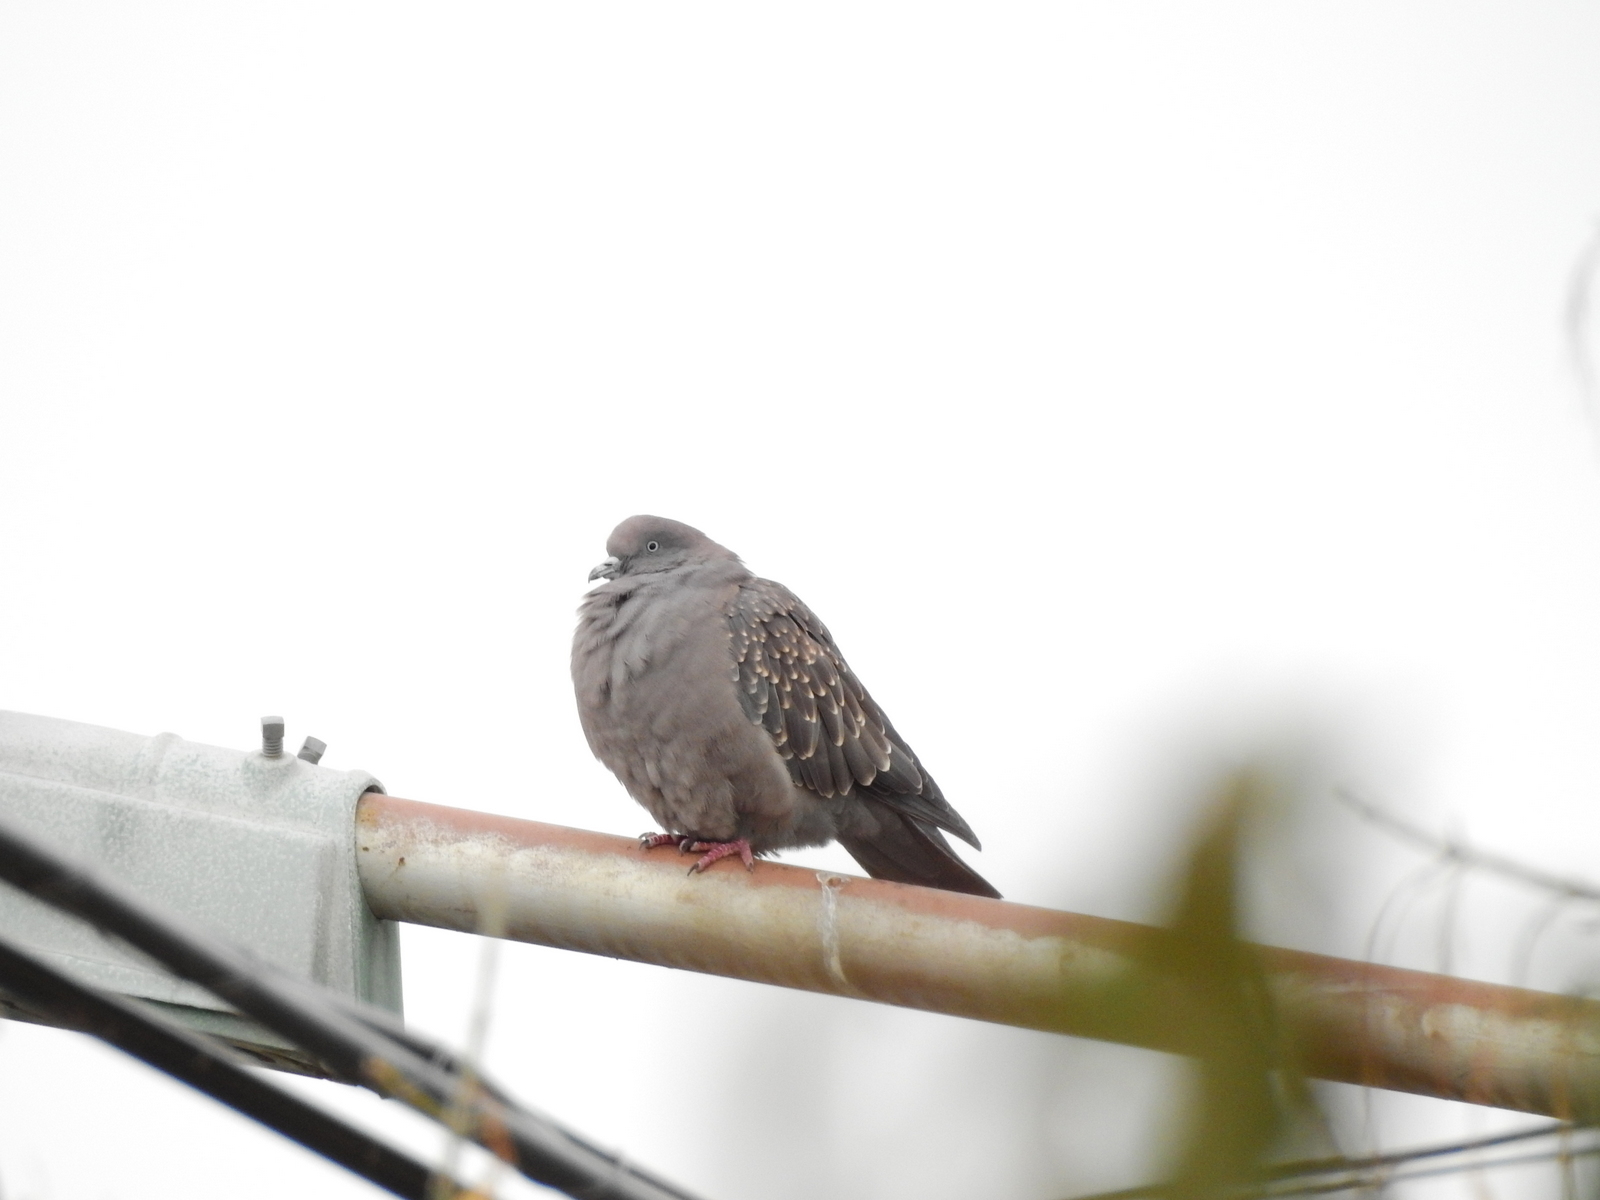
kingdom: Animalia
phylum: Chordata
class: Aves
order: Columbiformes
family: Columbidae
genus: Patagioenas
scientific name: Patagioenas maculosa
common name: Spot-winged pigeon
